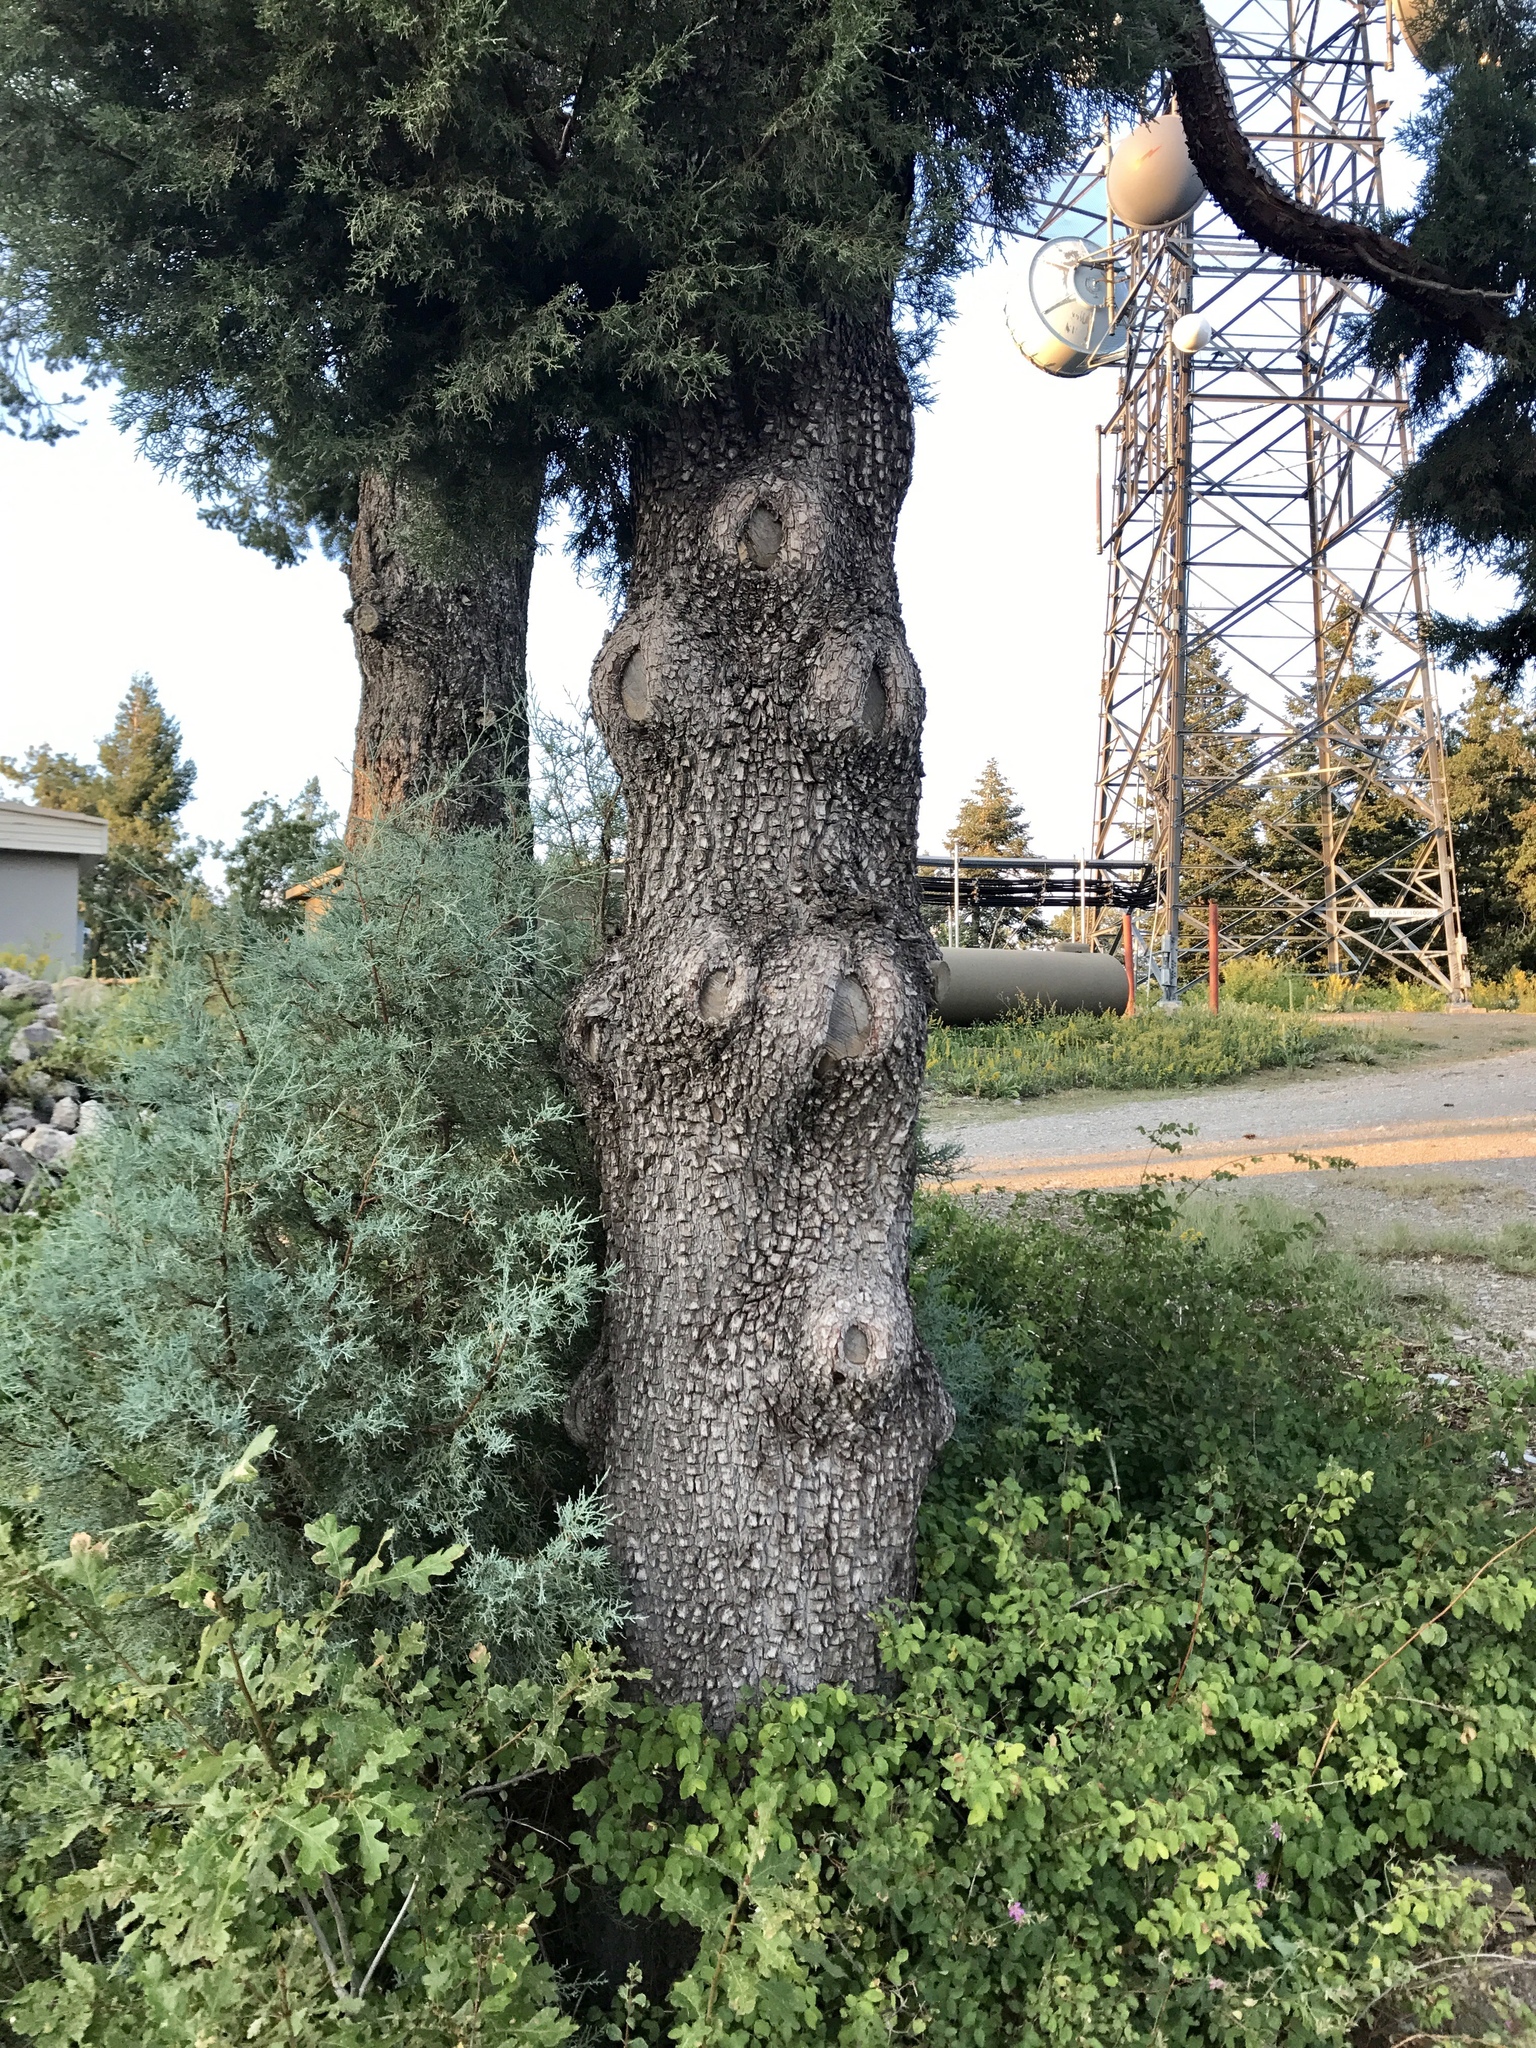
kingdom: Plantae
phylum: Tracheophyta
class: Pinopsida
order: Pinales
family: Cupressaceae
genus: Juniperus
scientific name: Juniperus deppeana
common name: Alligator juniper
